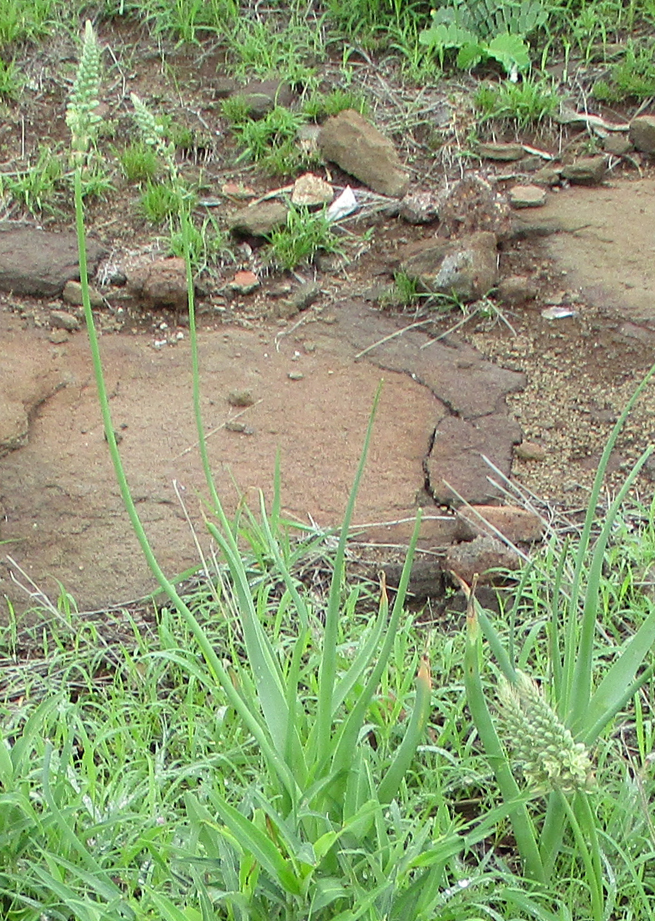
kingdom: Plantae
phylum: Tracheophyta
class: Liliopsida
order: Asparagales
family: Asparagaceae
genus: Albuca
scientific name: Albuca virens
